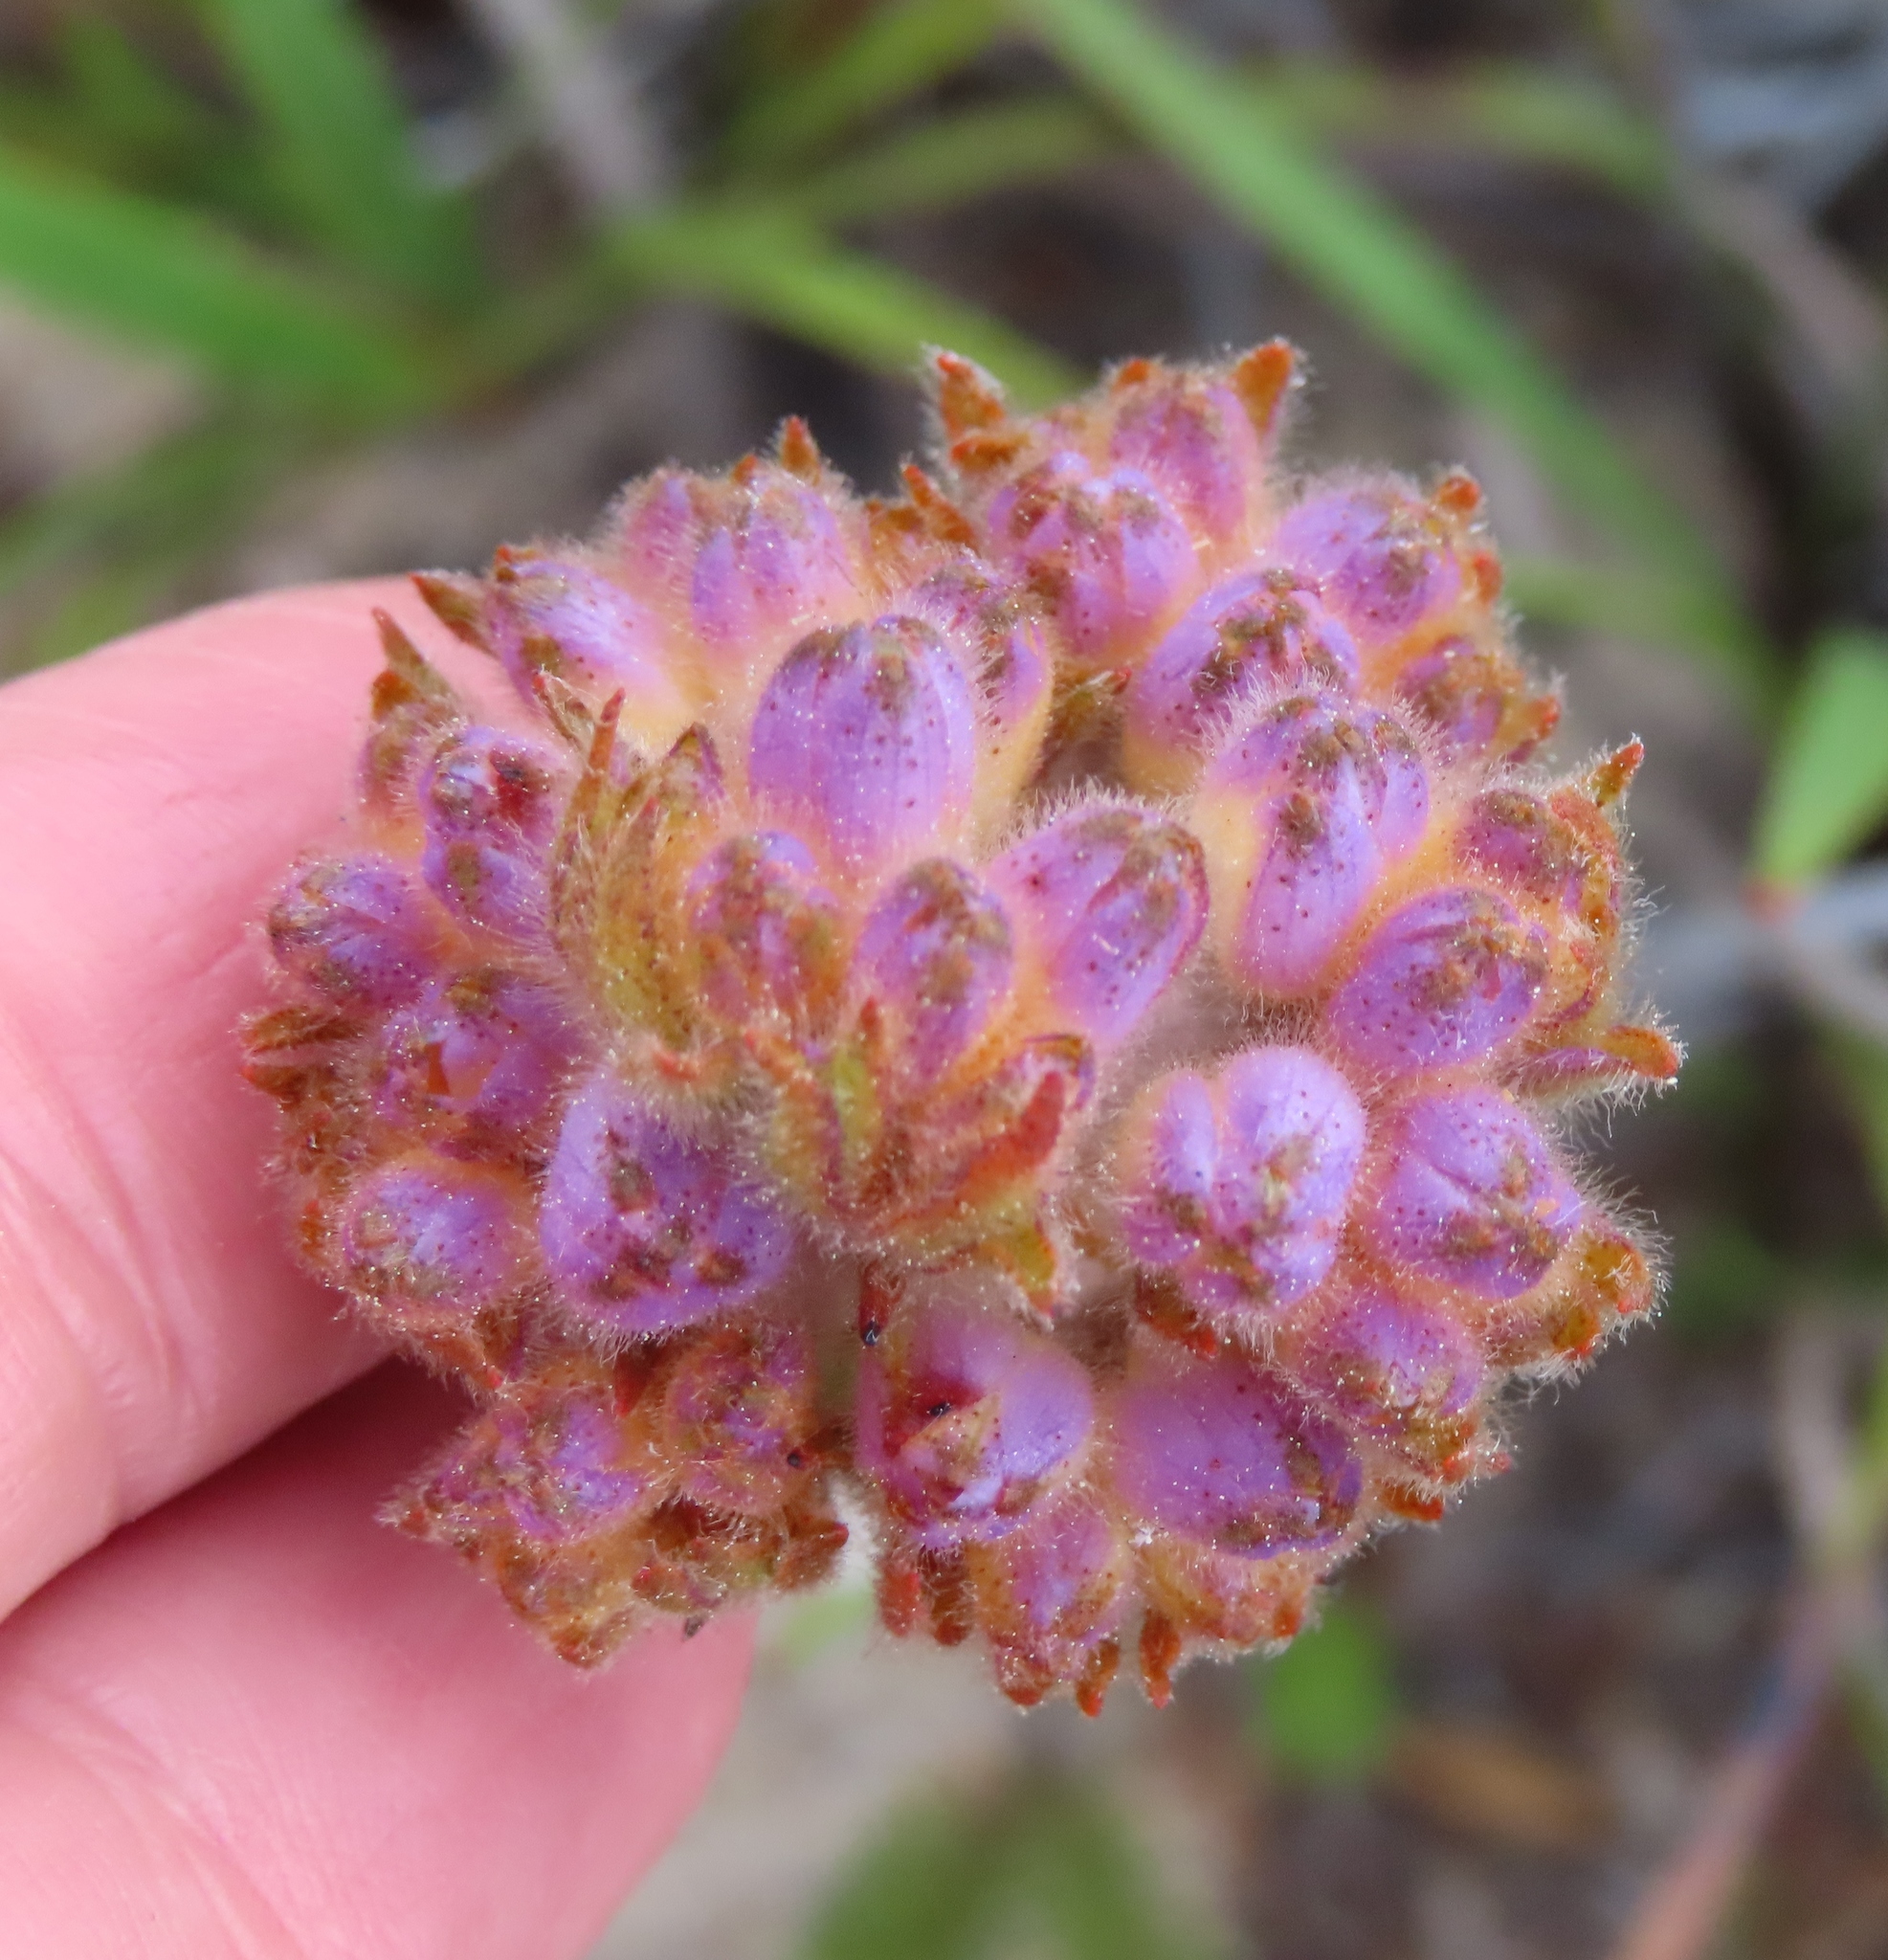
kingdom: Plantae
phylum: Tracheophyta
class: Liliopsida
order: Commelinales
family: Haemodoraceae
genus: Dilatris
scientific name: Dilatris corymbosa
